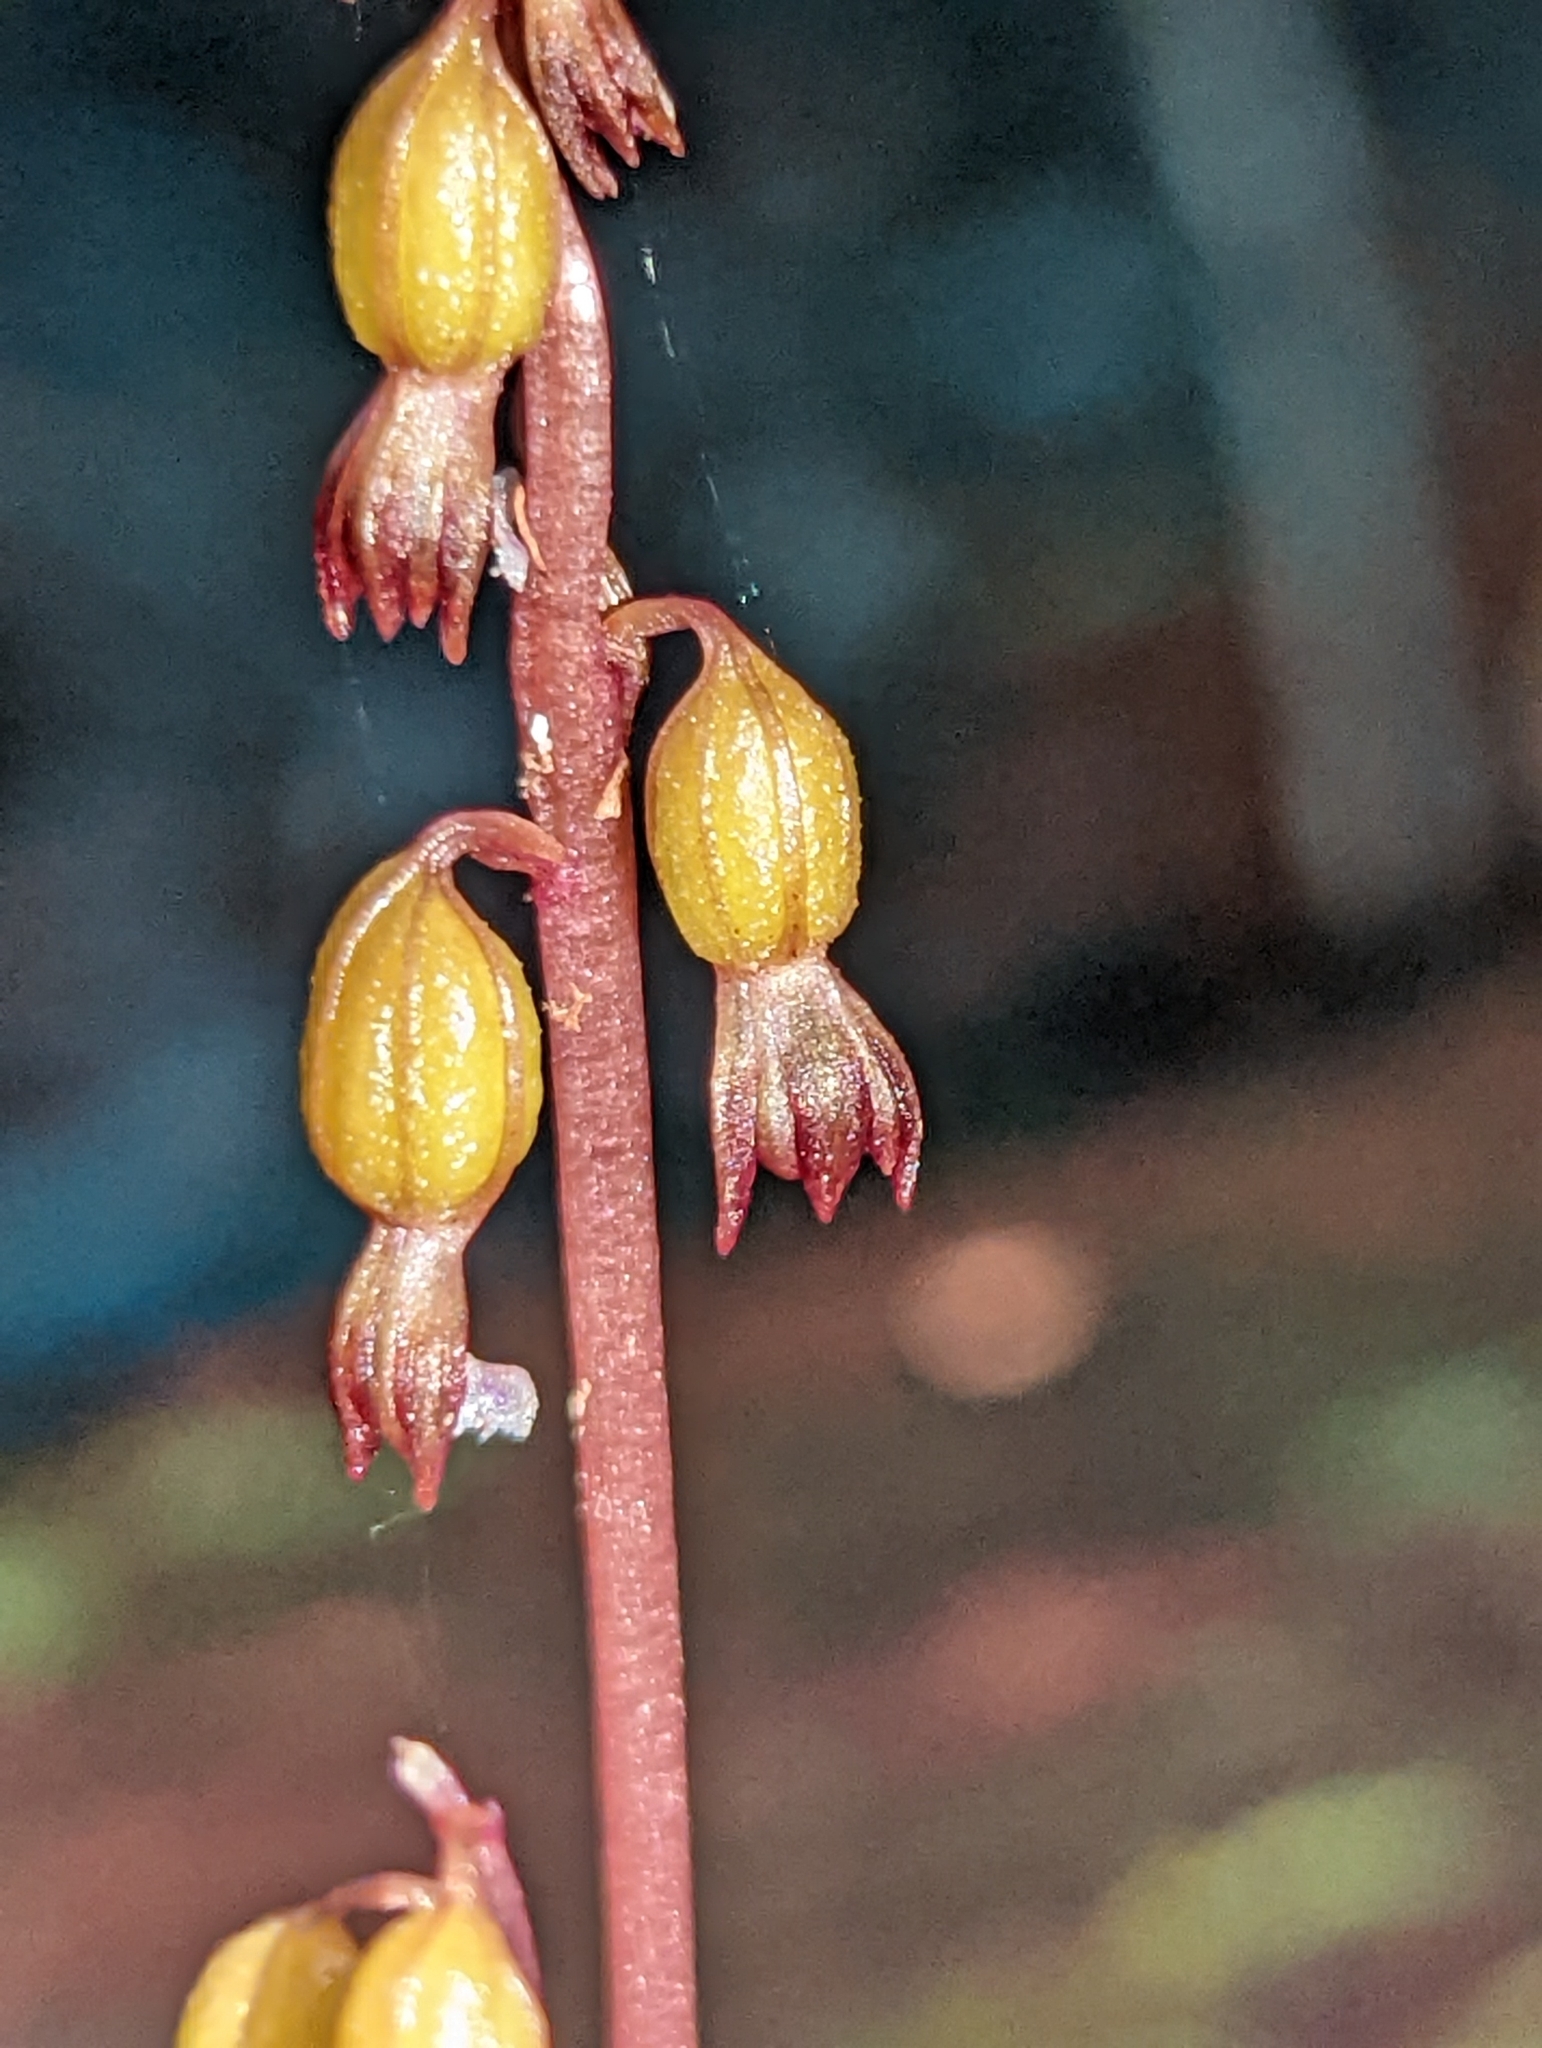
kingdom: Plantae
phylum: Tracheophyta
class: Liliopsida
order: Asparagales
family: Orchidaceae
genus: Corallorhiza
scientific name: Corallorhiza odontorhiza
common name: Autumn coralroot
